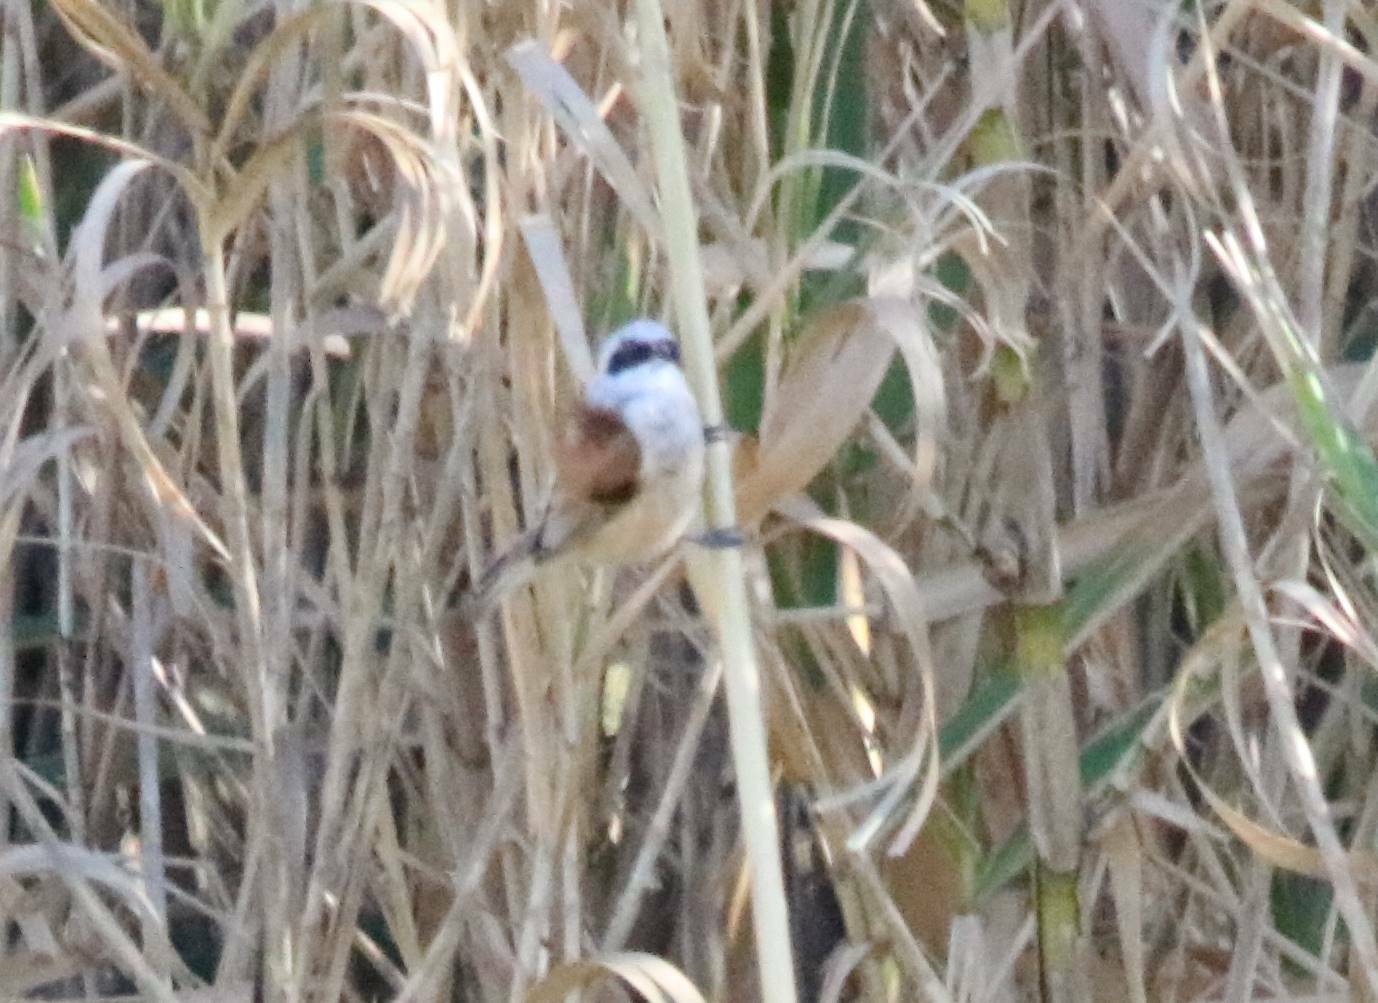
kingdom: Animalia
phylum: Chordata
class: Aves
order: Passeriformes
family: Remizidae
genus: Remiz
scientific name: Remiz pendulinus
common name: Eurasian penduline tit
